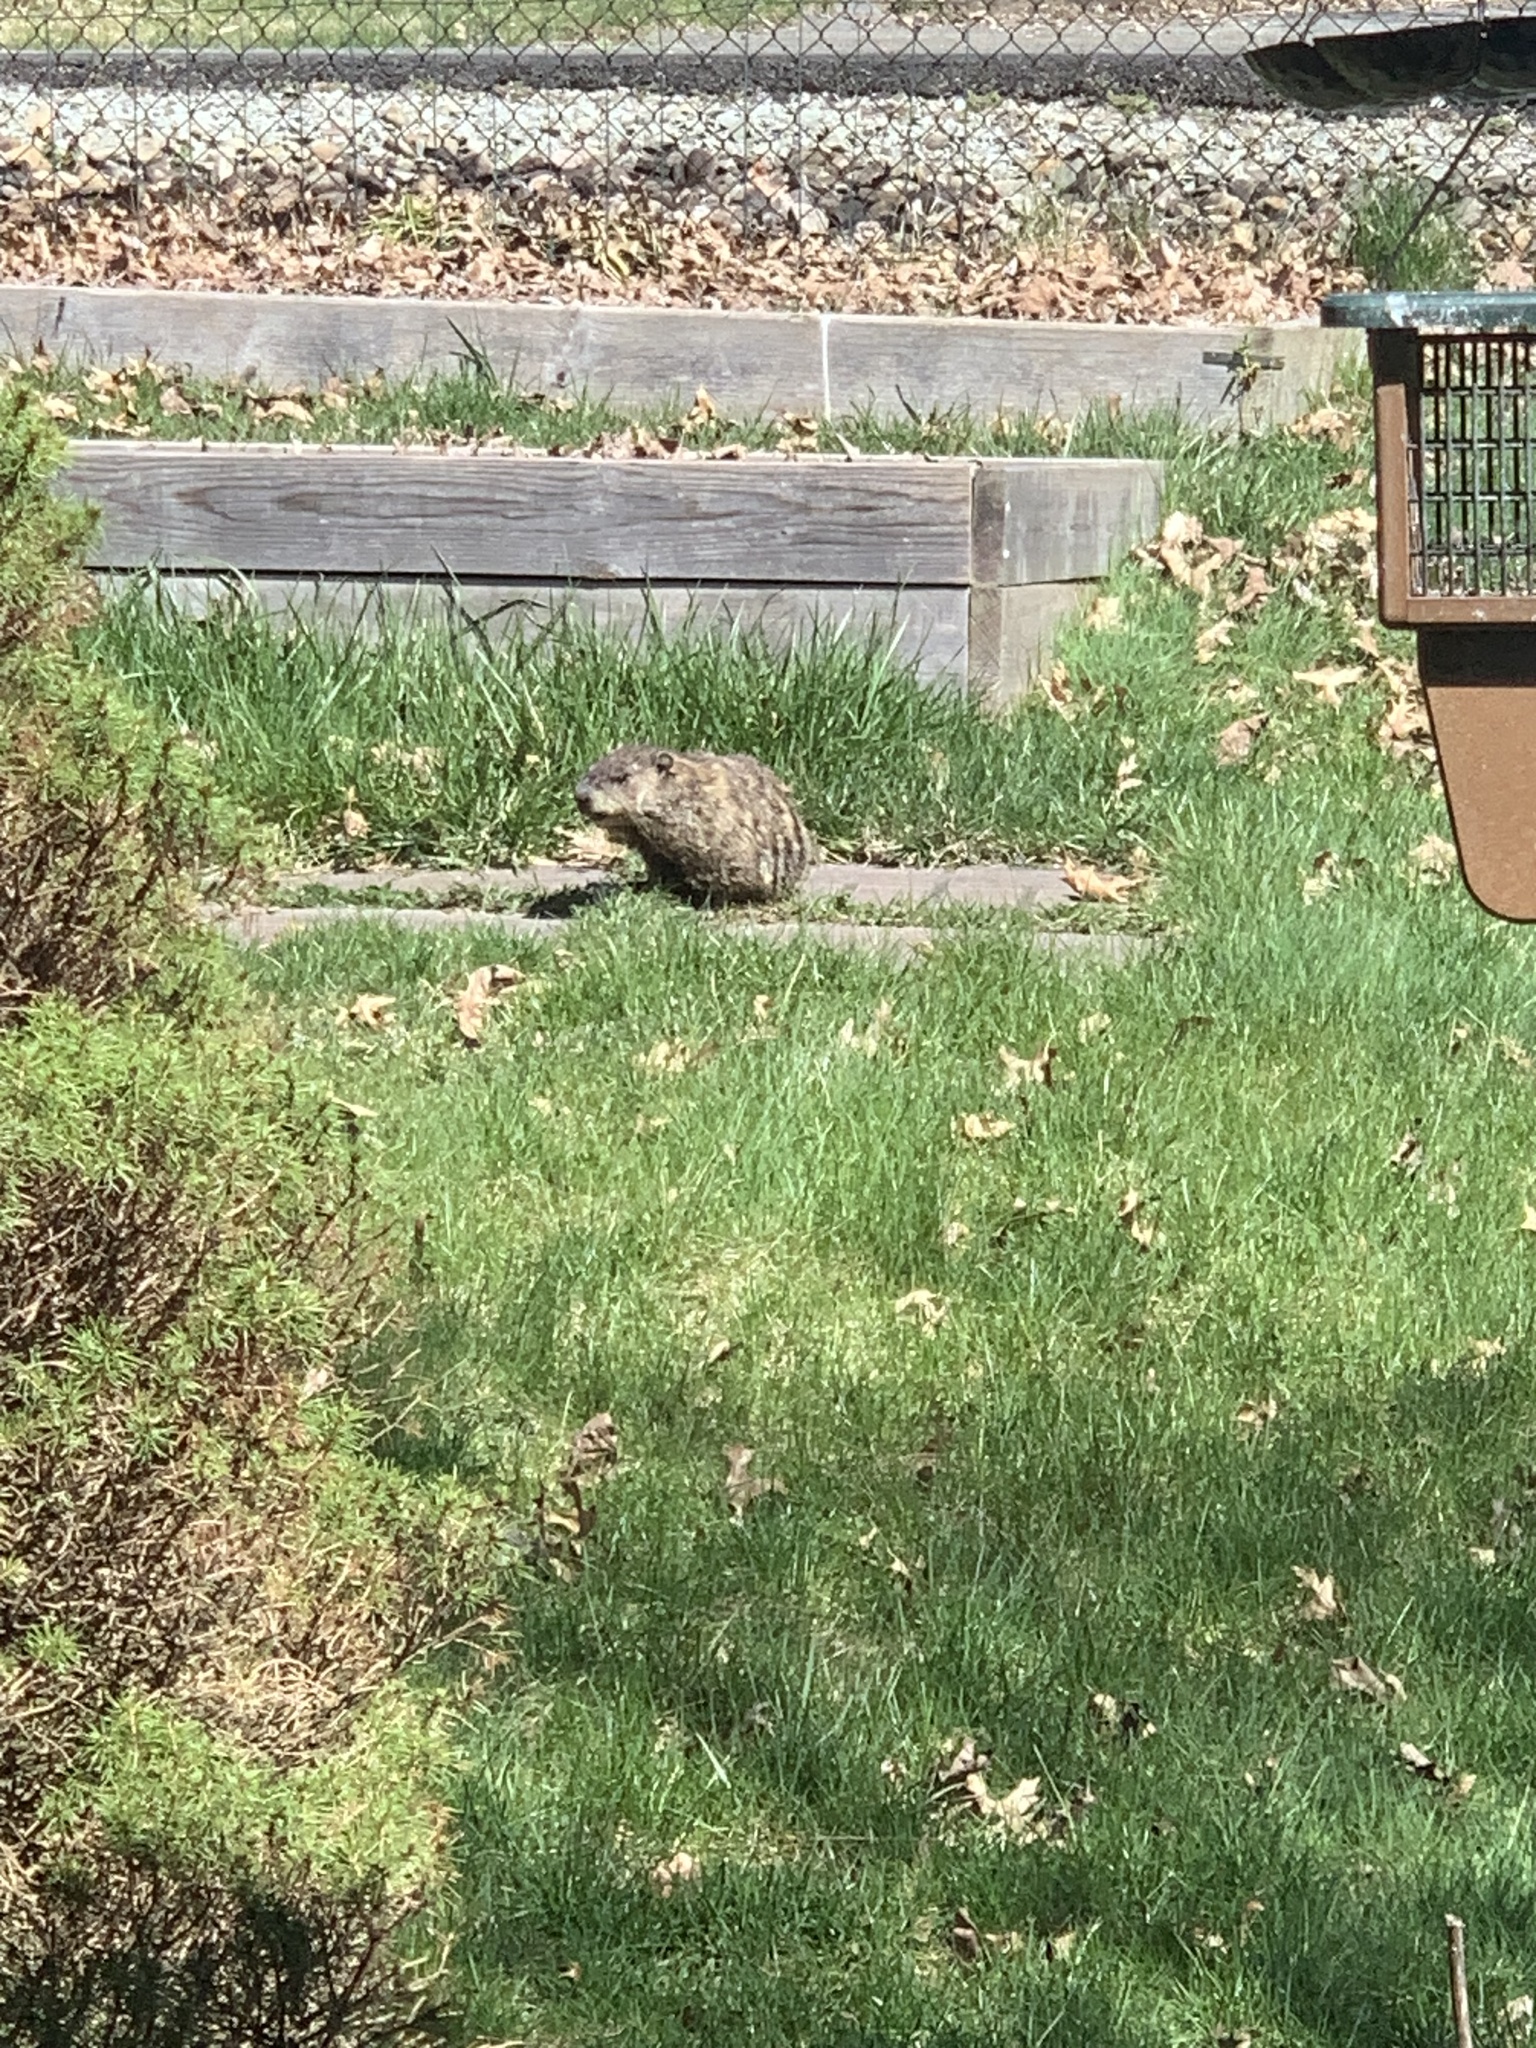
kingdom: Animalia
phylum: Chordata
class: Mammalia
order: Rodentia
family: Sciuridae
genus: Marmota
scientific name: Marmota monax
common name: Groundhog
